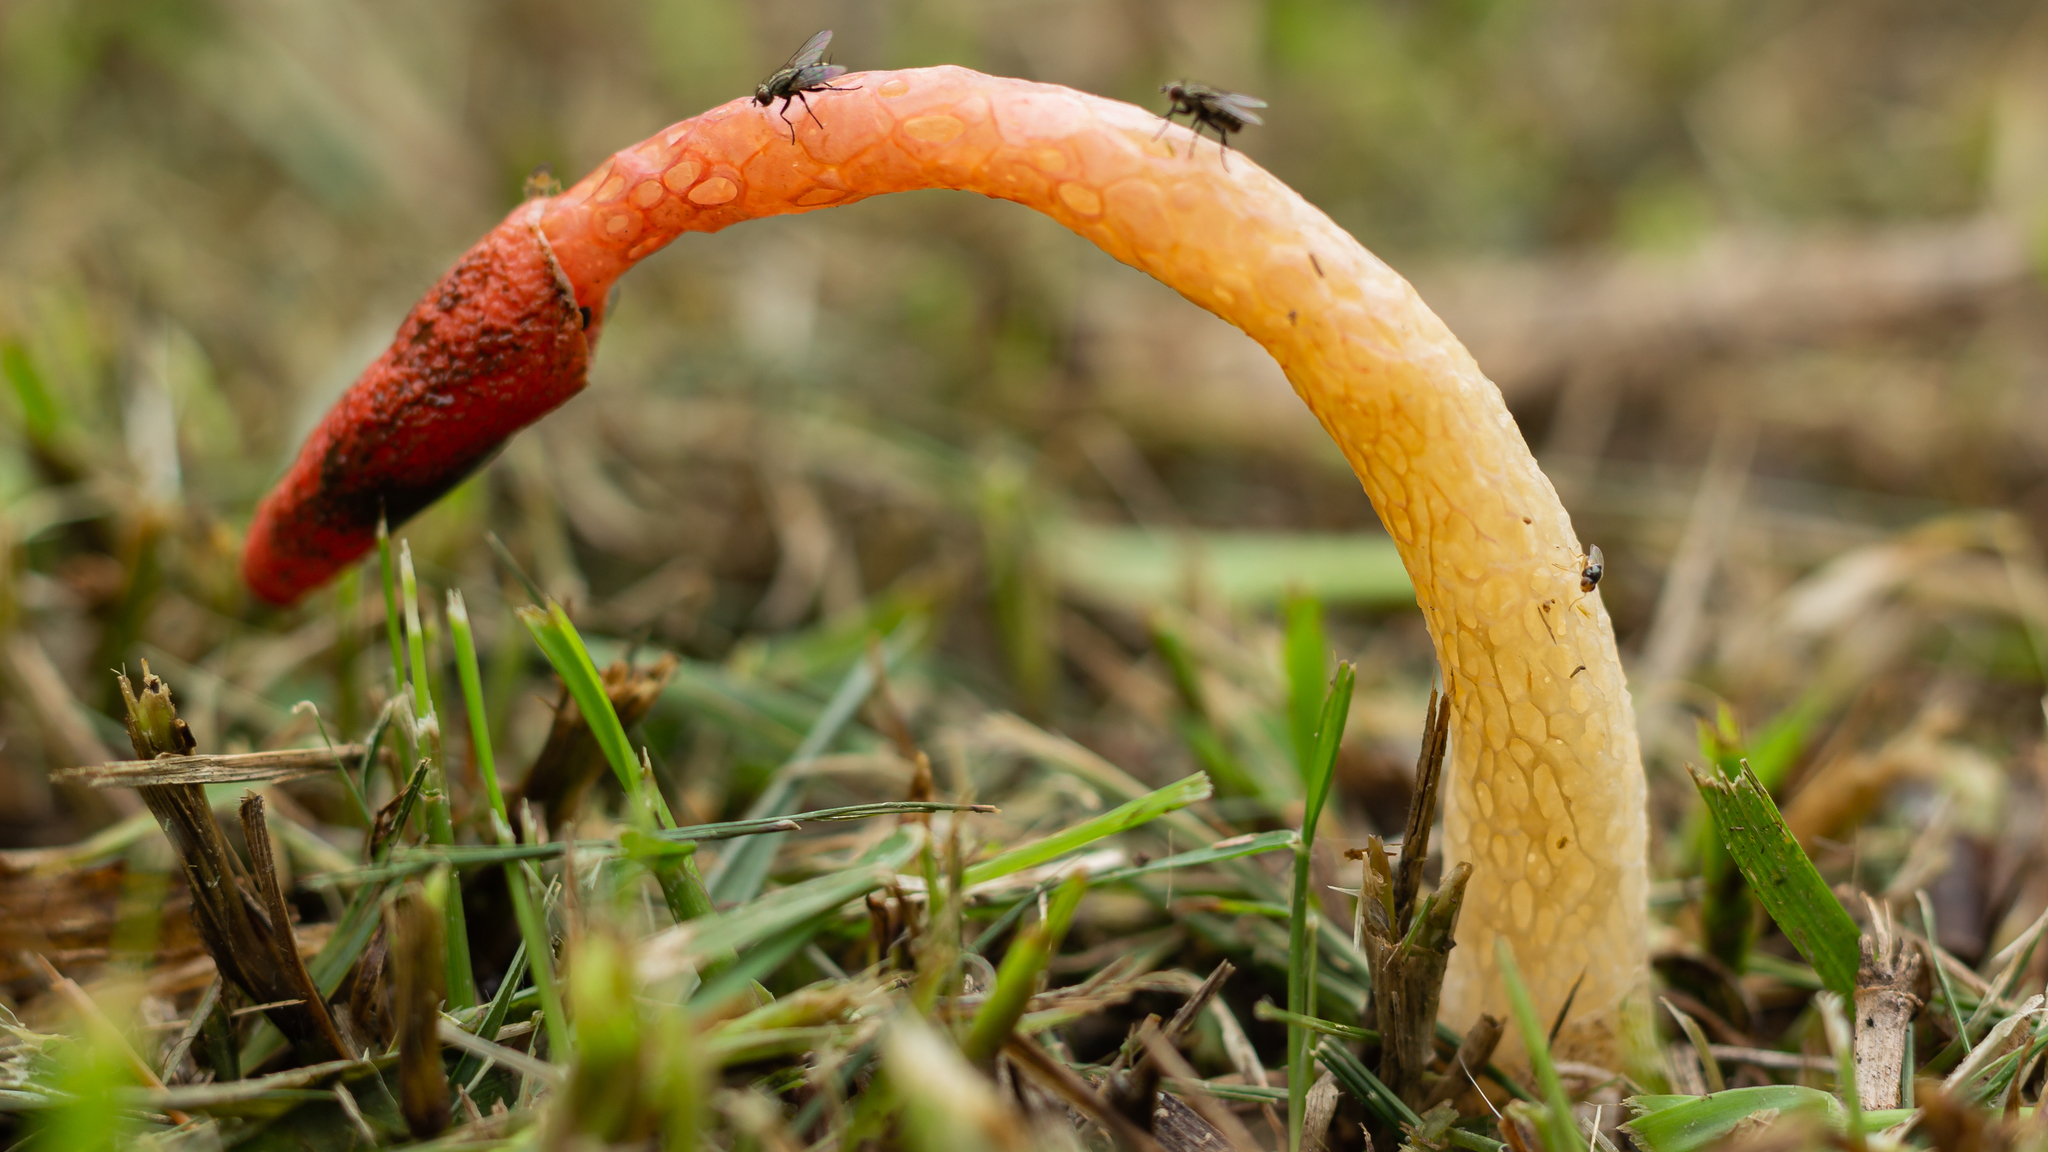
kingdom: Fungi
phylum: Basidiomycota
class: Agaricomycetes
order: Phallales
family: Phallaceae
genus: Phallus
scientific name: Phallus rugulosus
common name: Wrinkly stinkhorn
